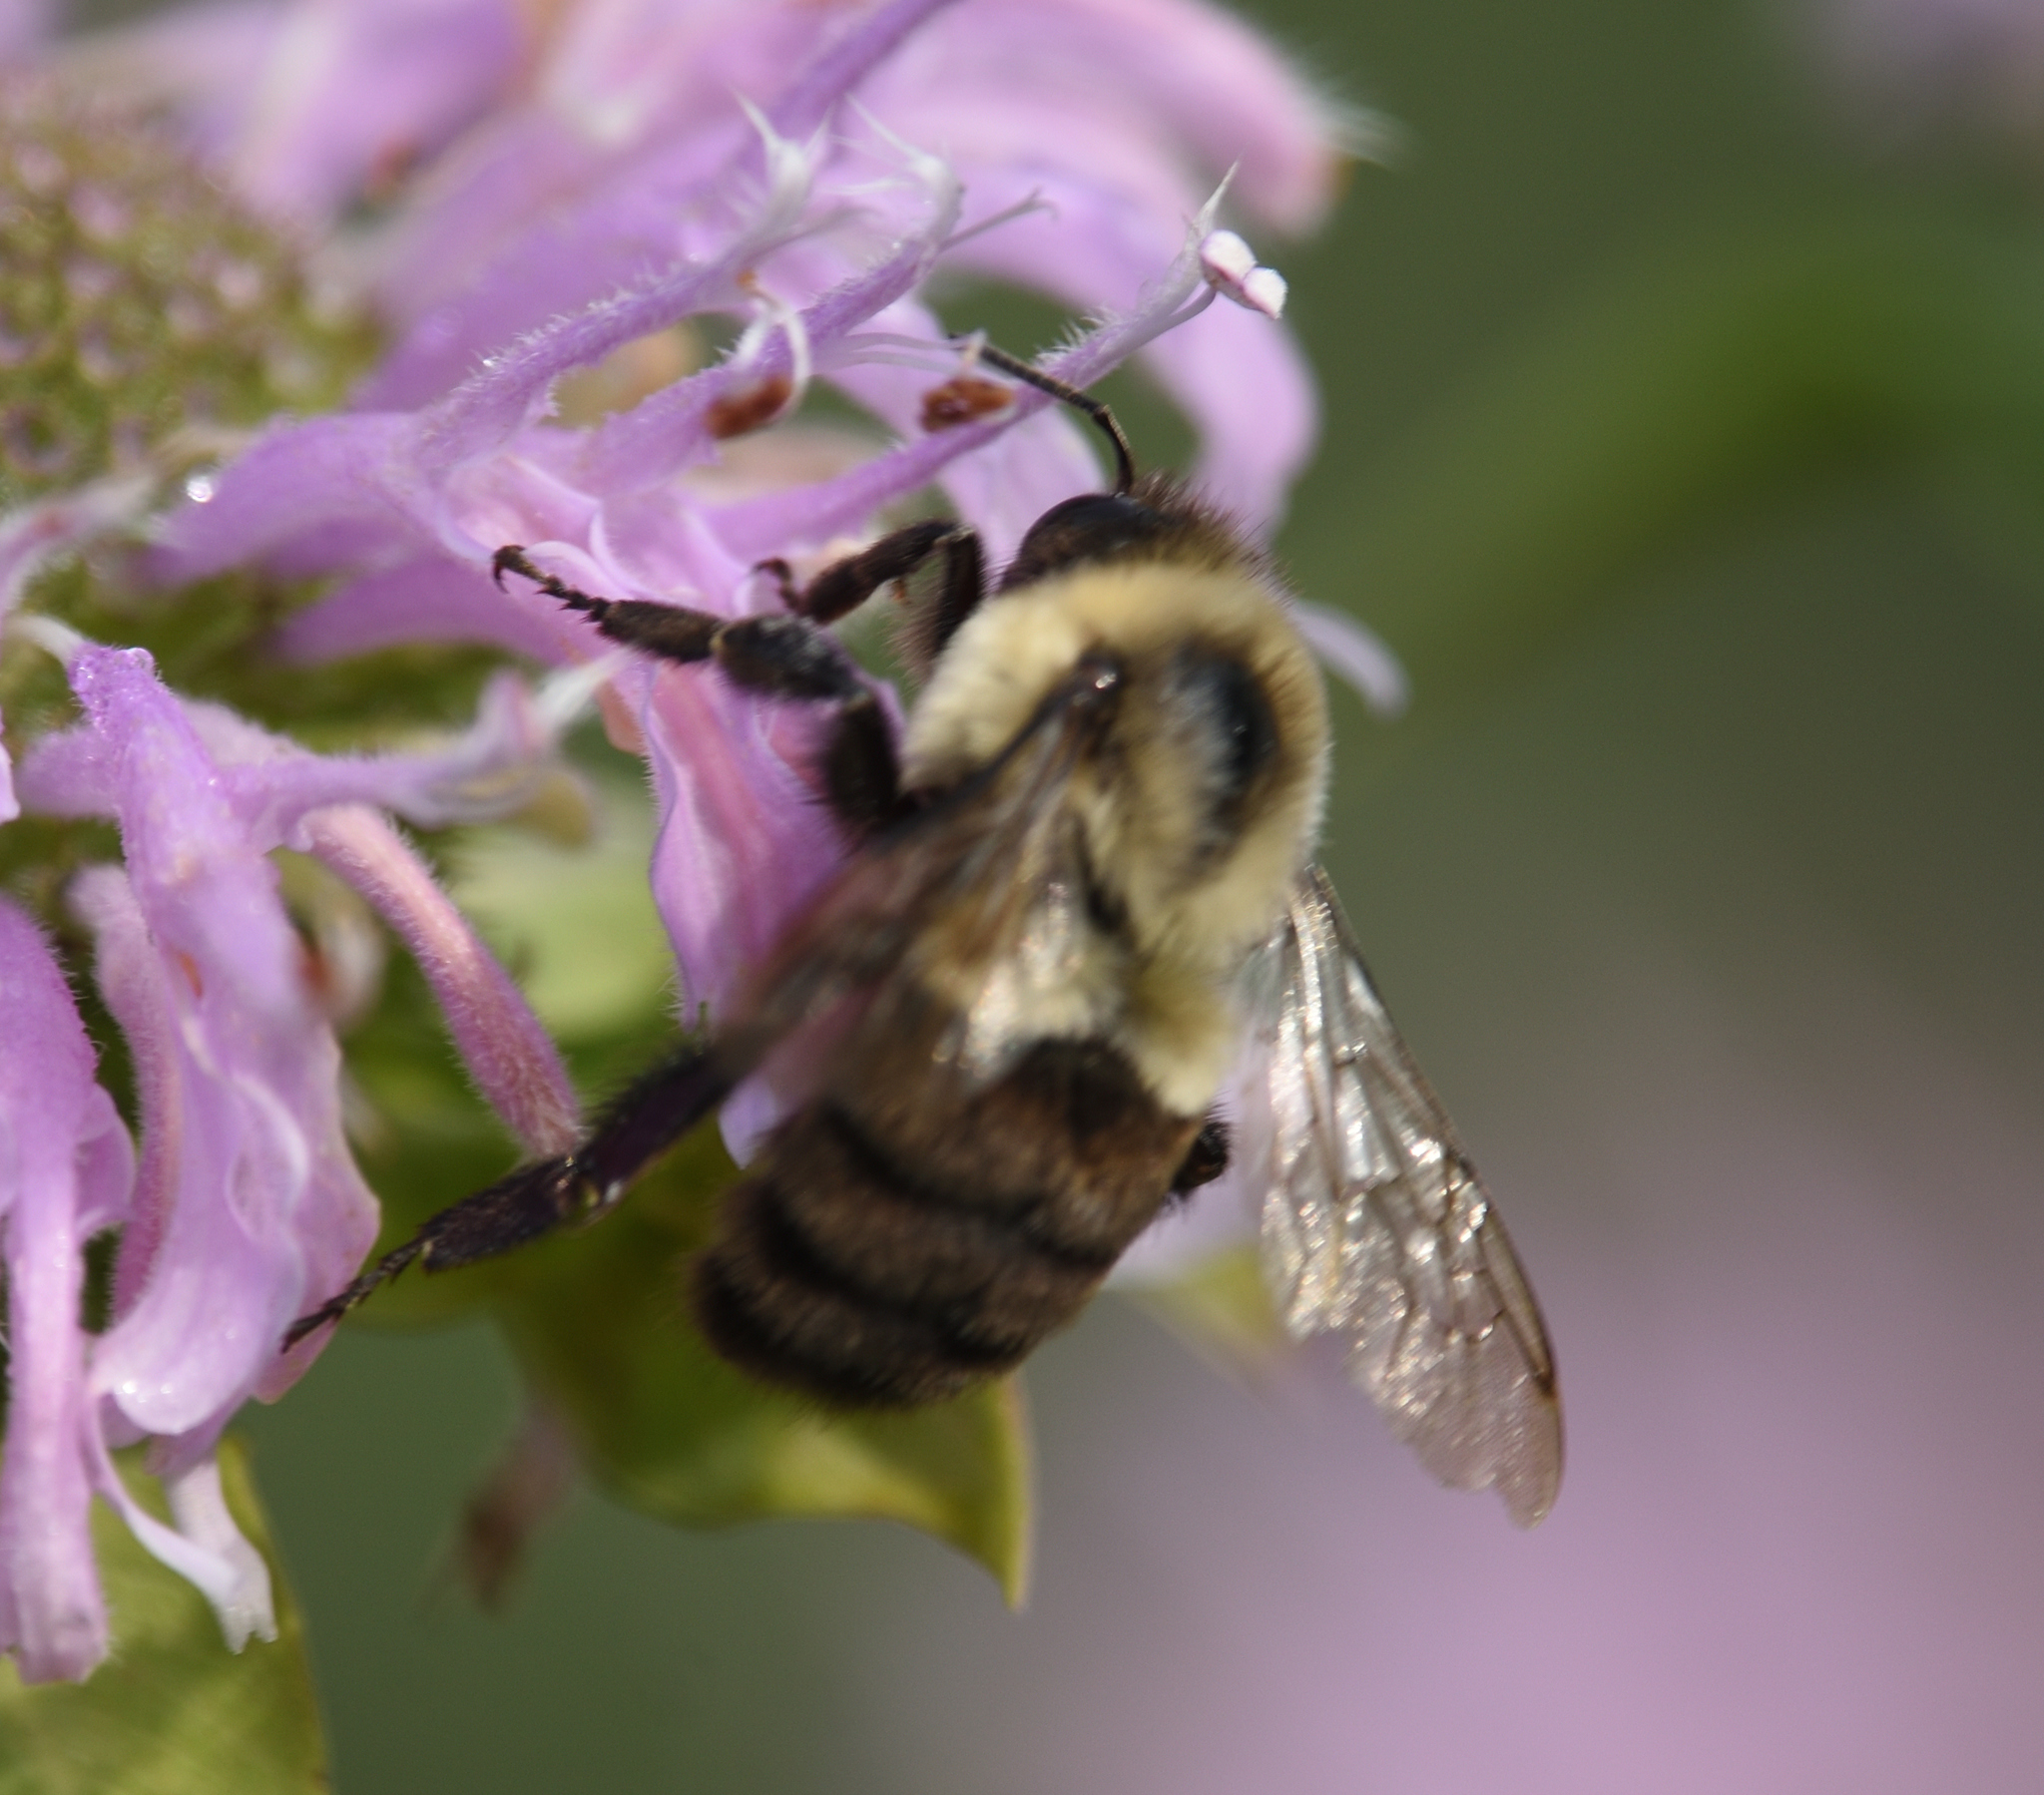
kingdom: Animalia
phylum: Arthropoda
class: Insecta
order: Hymenoptera
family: Apidae
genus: Bombus
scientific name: Bombus impatiens
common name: Common eastern bumble bee
